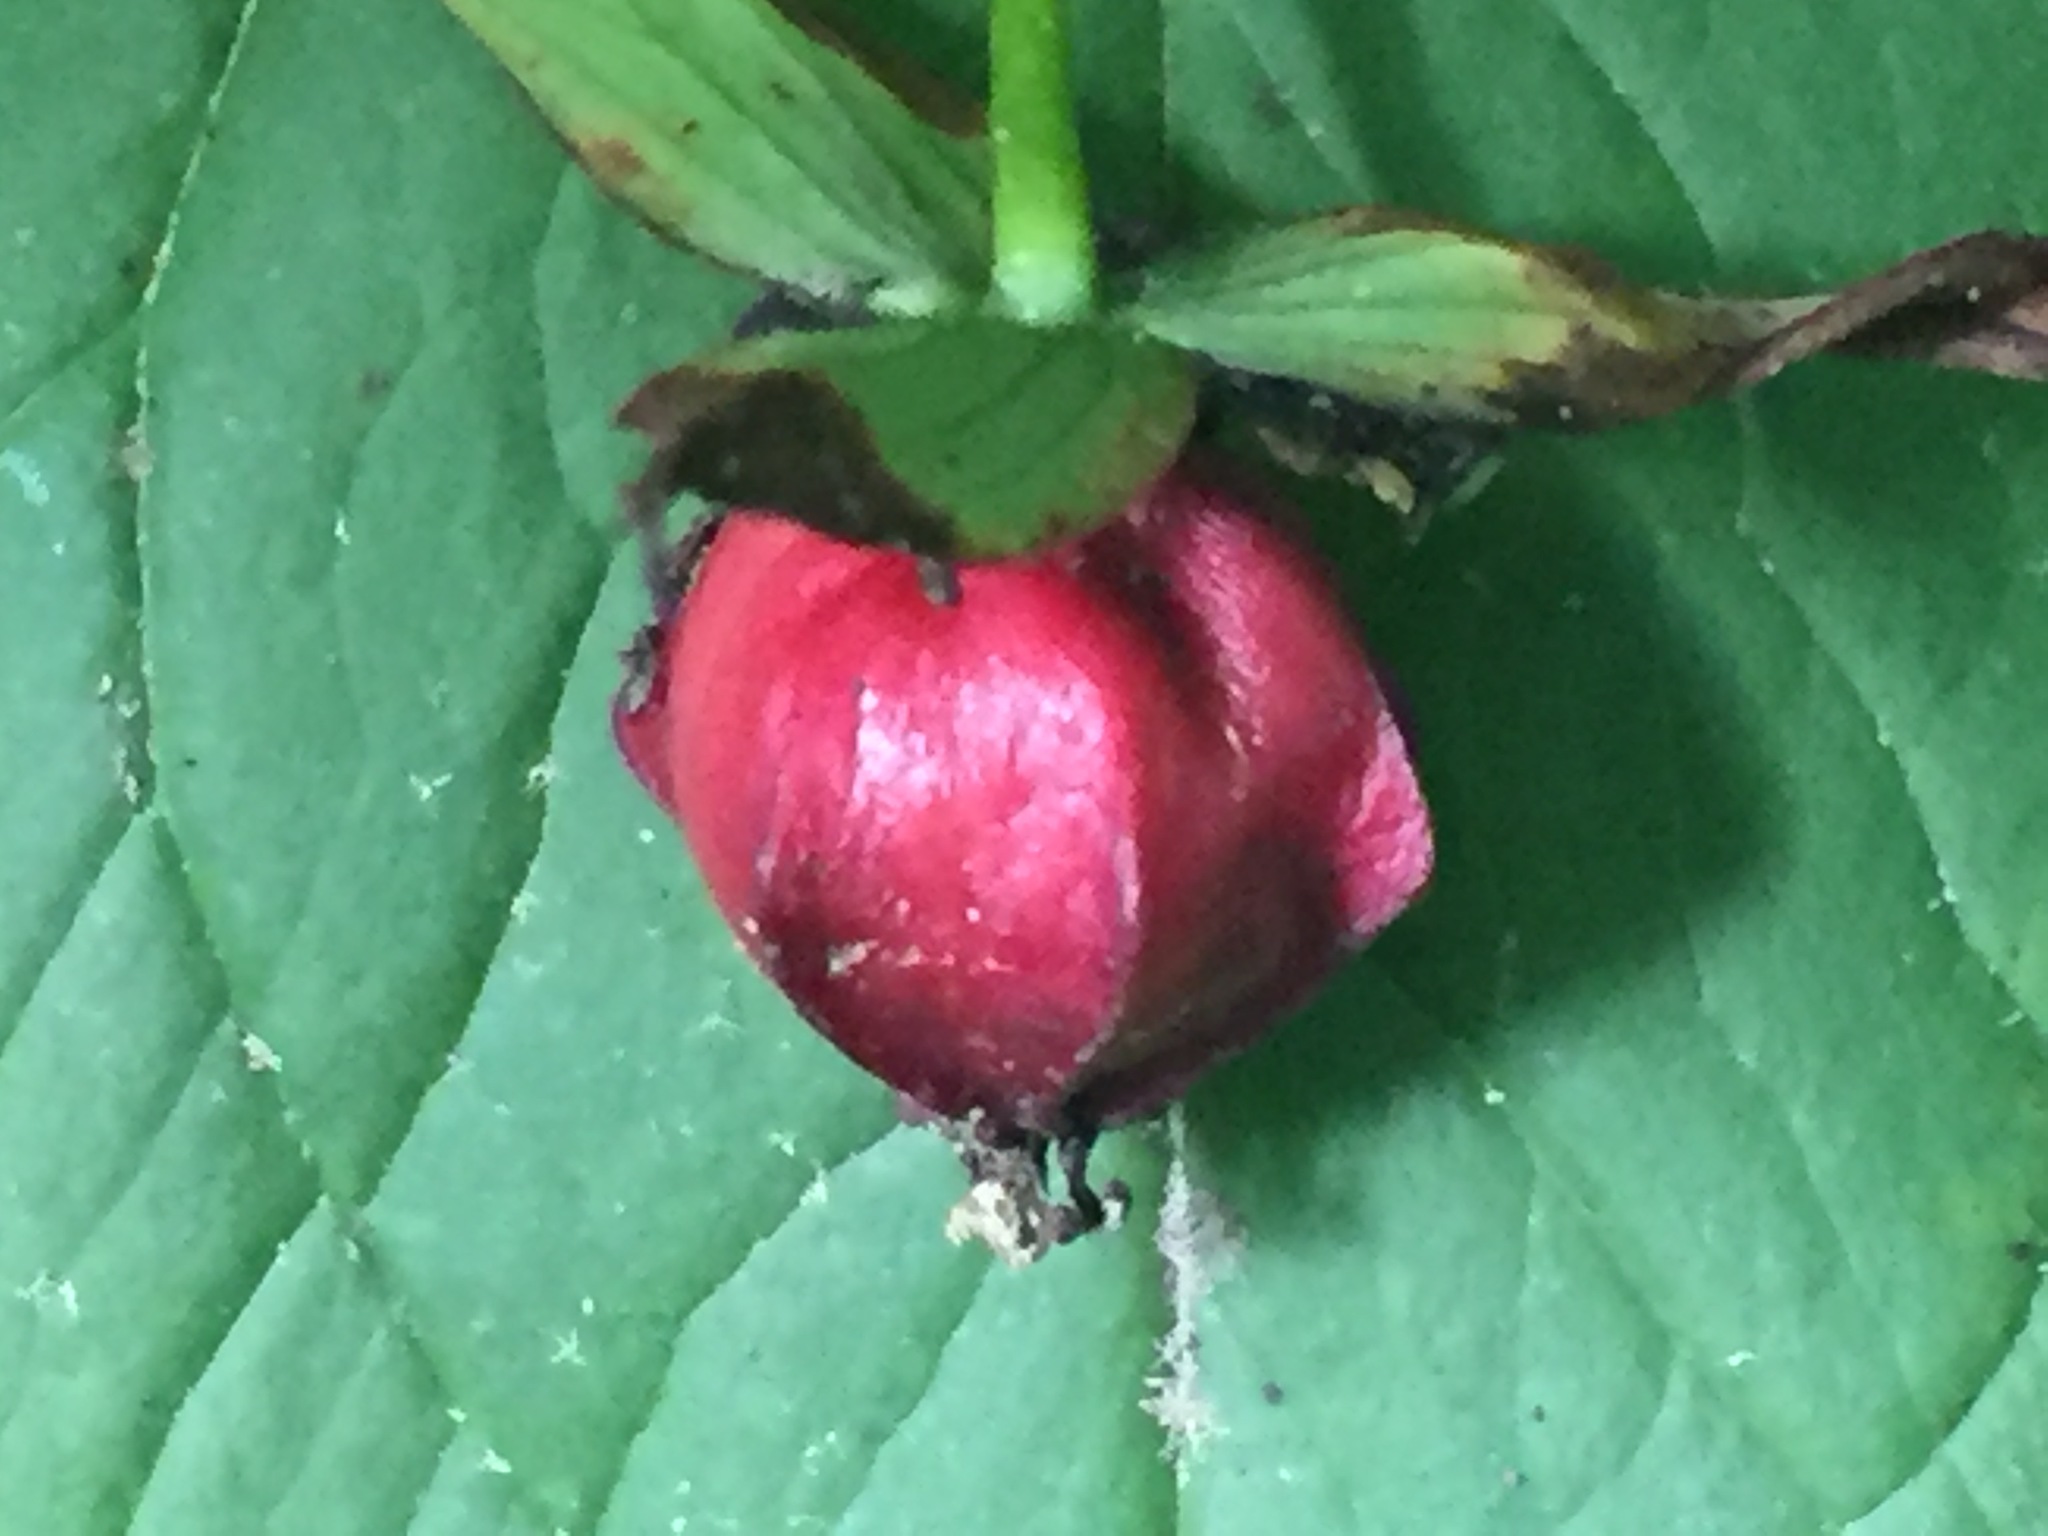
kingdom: Plantae
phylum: Tracheophyta
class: Liliopsida
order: Liliales
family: Melanthiaceae
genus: Trillium
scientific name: Trillium erectum
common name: Purple trillium
